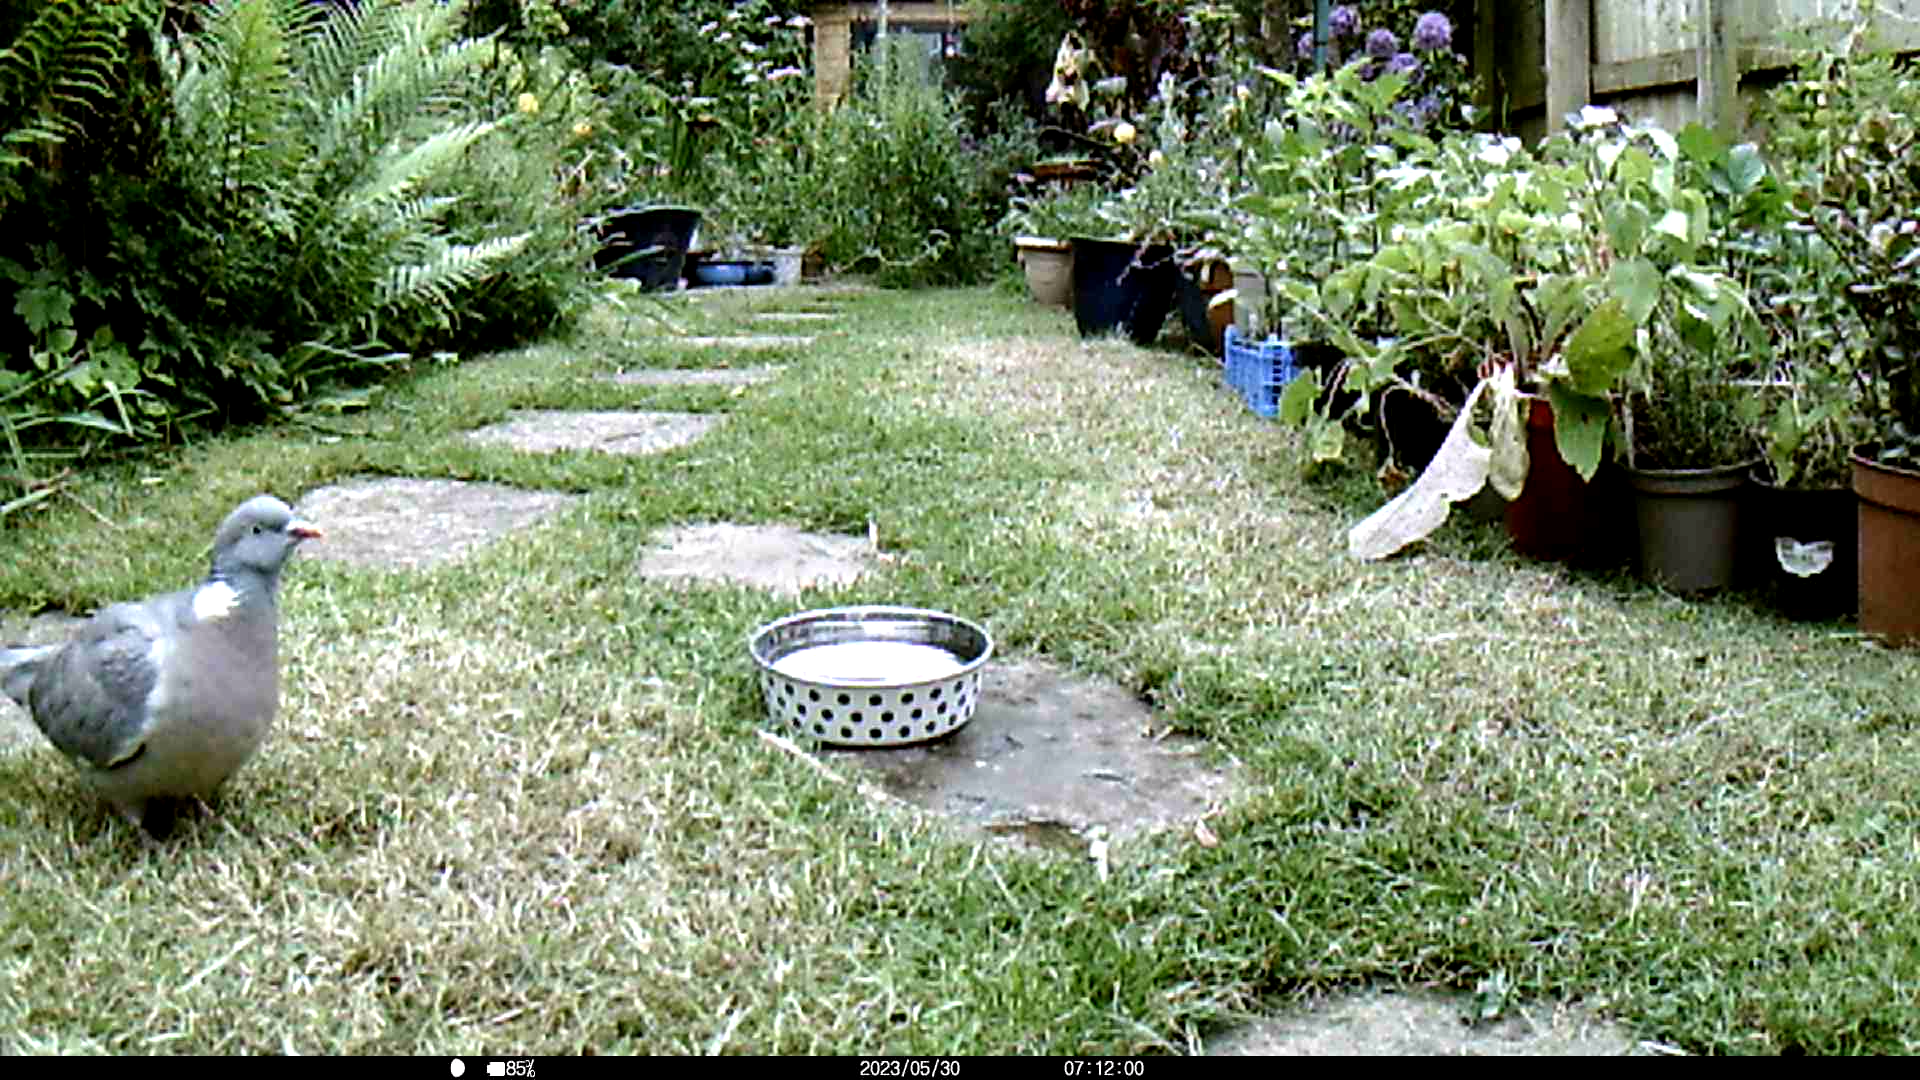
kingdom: Animalia
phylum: Chordata
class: Aves
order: Columbiformes
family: Columbidae
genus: Columba
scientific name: Columba palumbus
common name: Common wood pigeon
